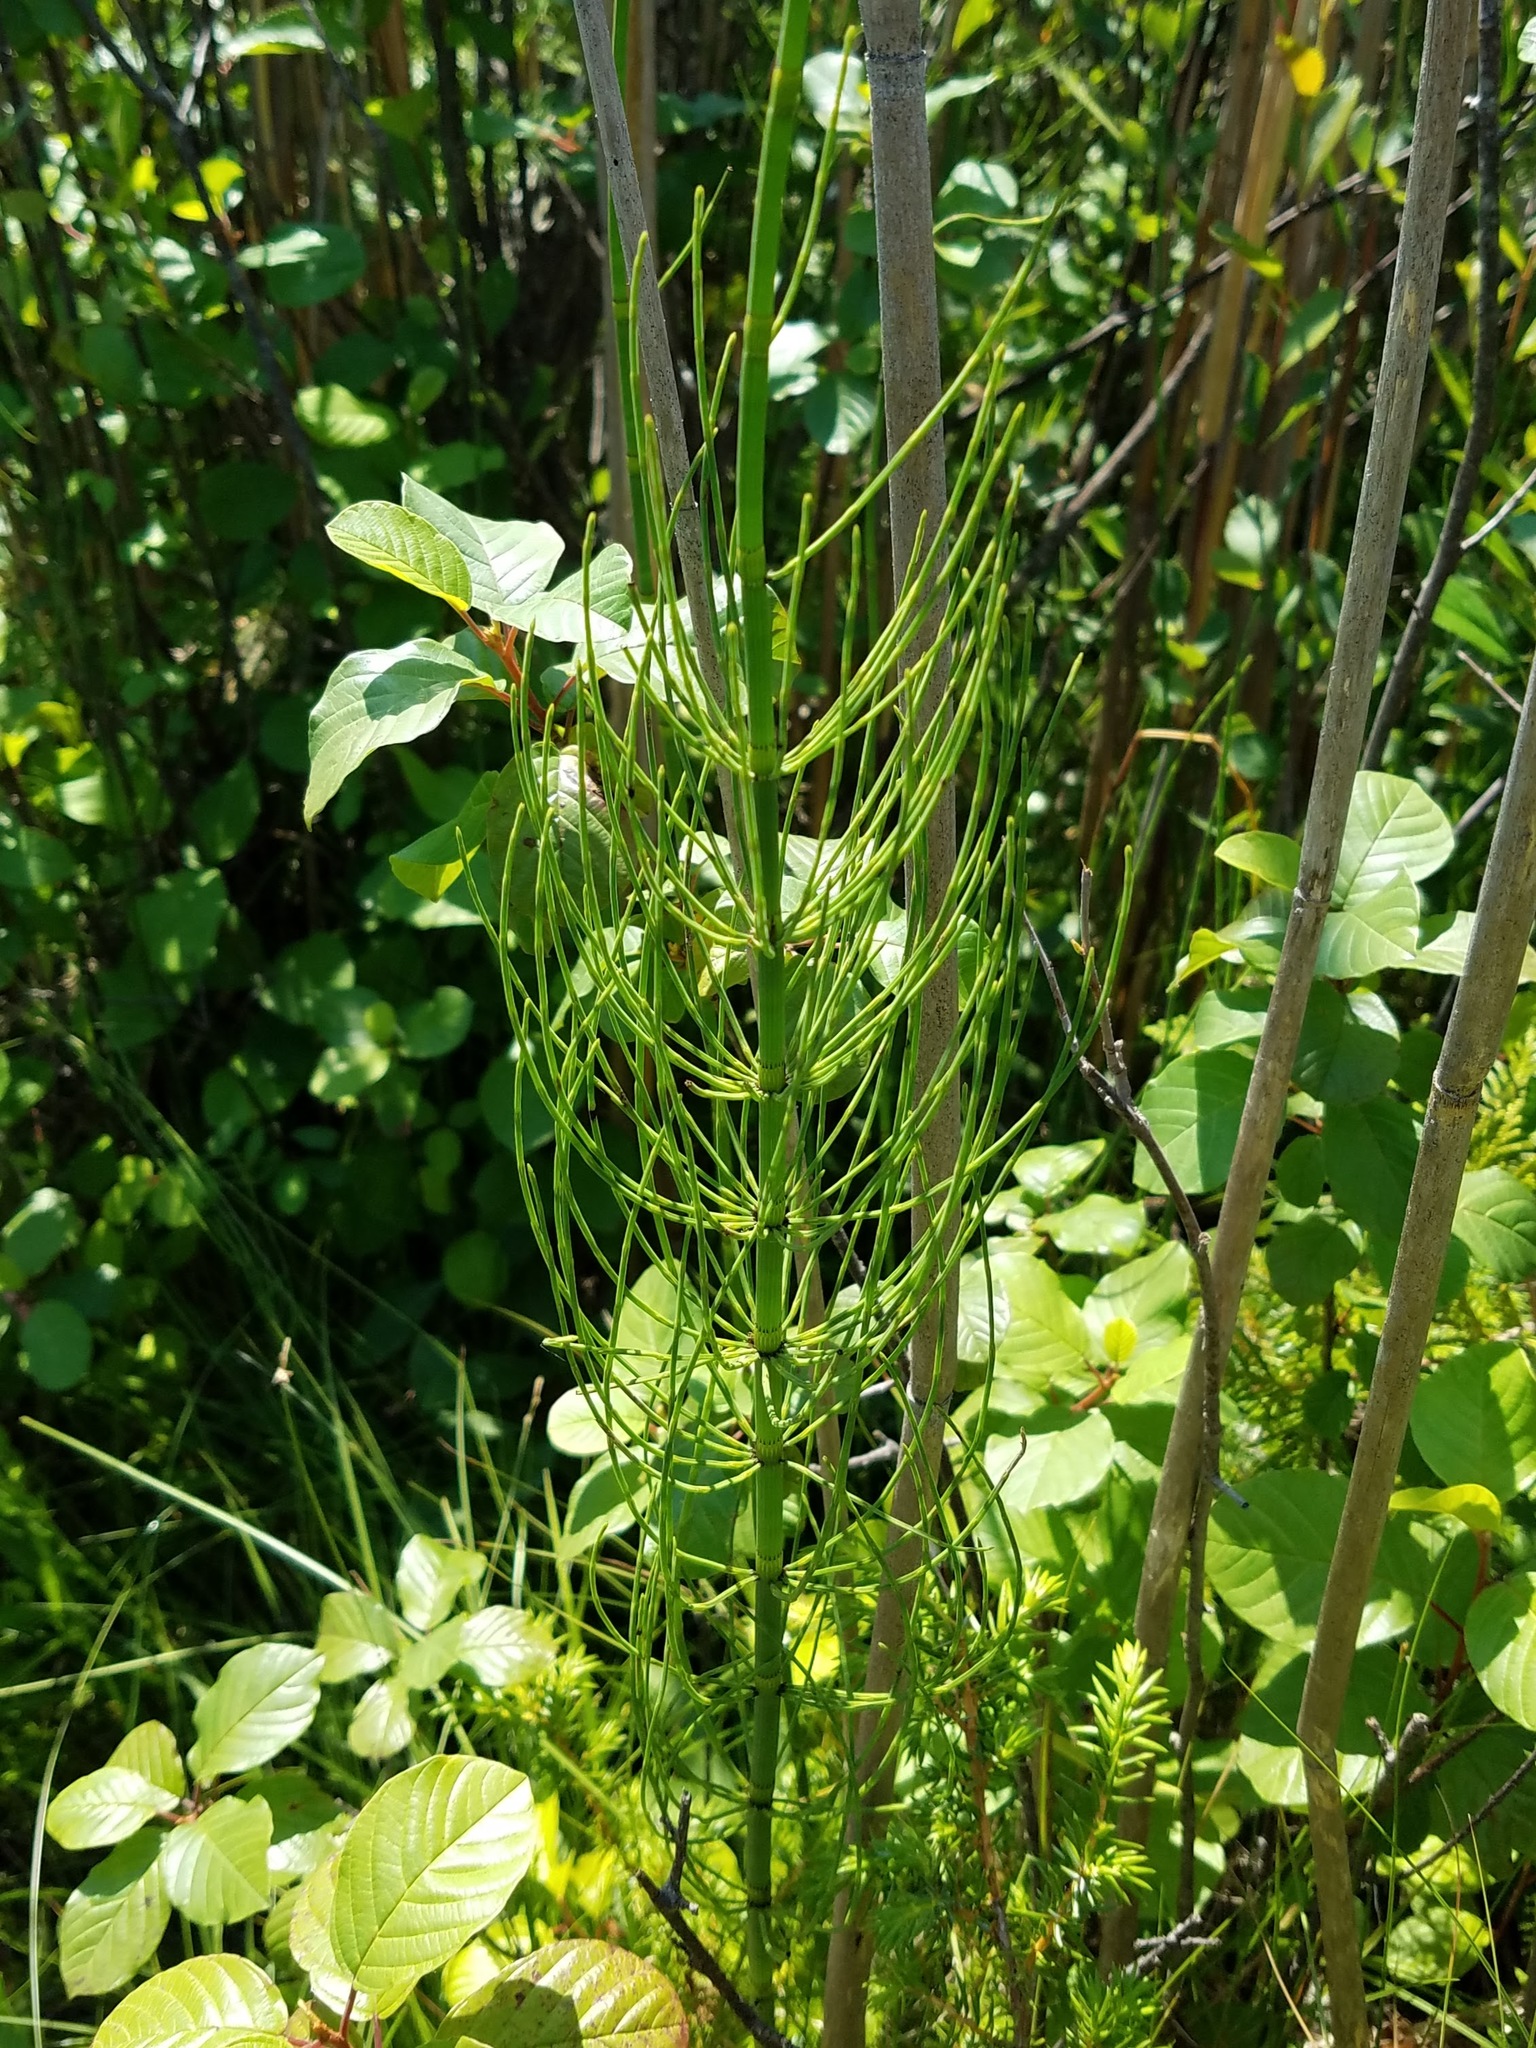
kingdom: Plantae
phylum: Tracheophyta
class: Polypodiopsida
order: Equisetales
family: Equisetaceae
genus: Equisetum
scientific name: Equisetum arvense
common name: Field horsetail
